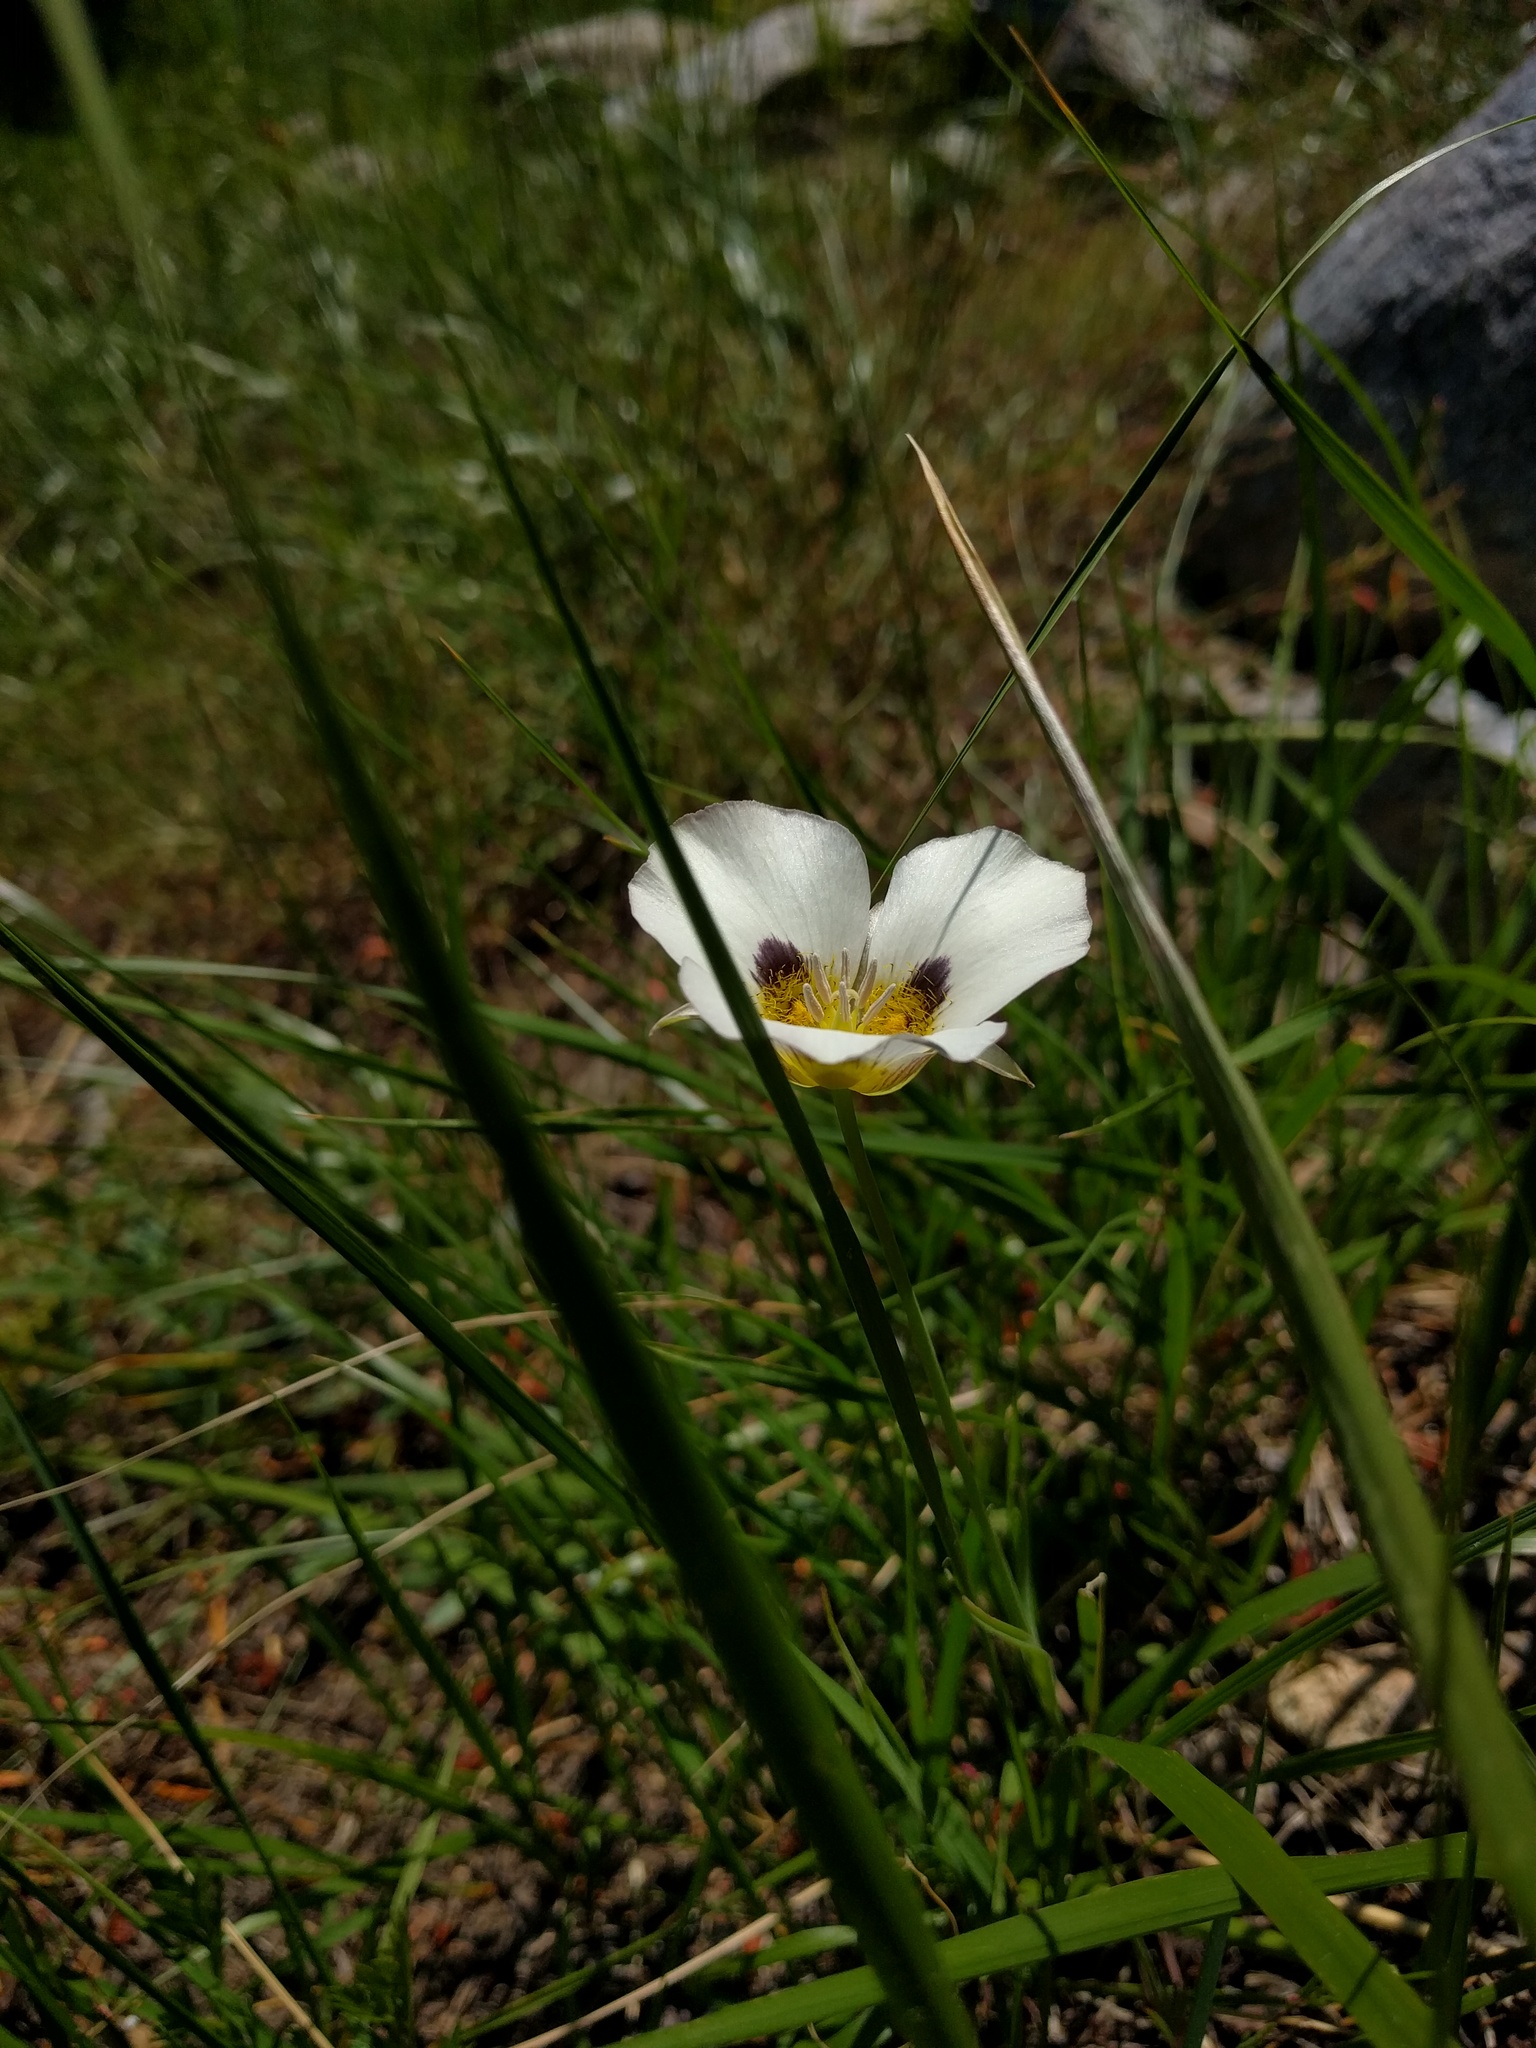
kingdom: Plantae
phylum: Tracheophyta
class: Liliopsida
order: Liliales
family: Liliaceae
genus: Calochortus
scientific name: Calochortus leichtlinii
